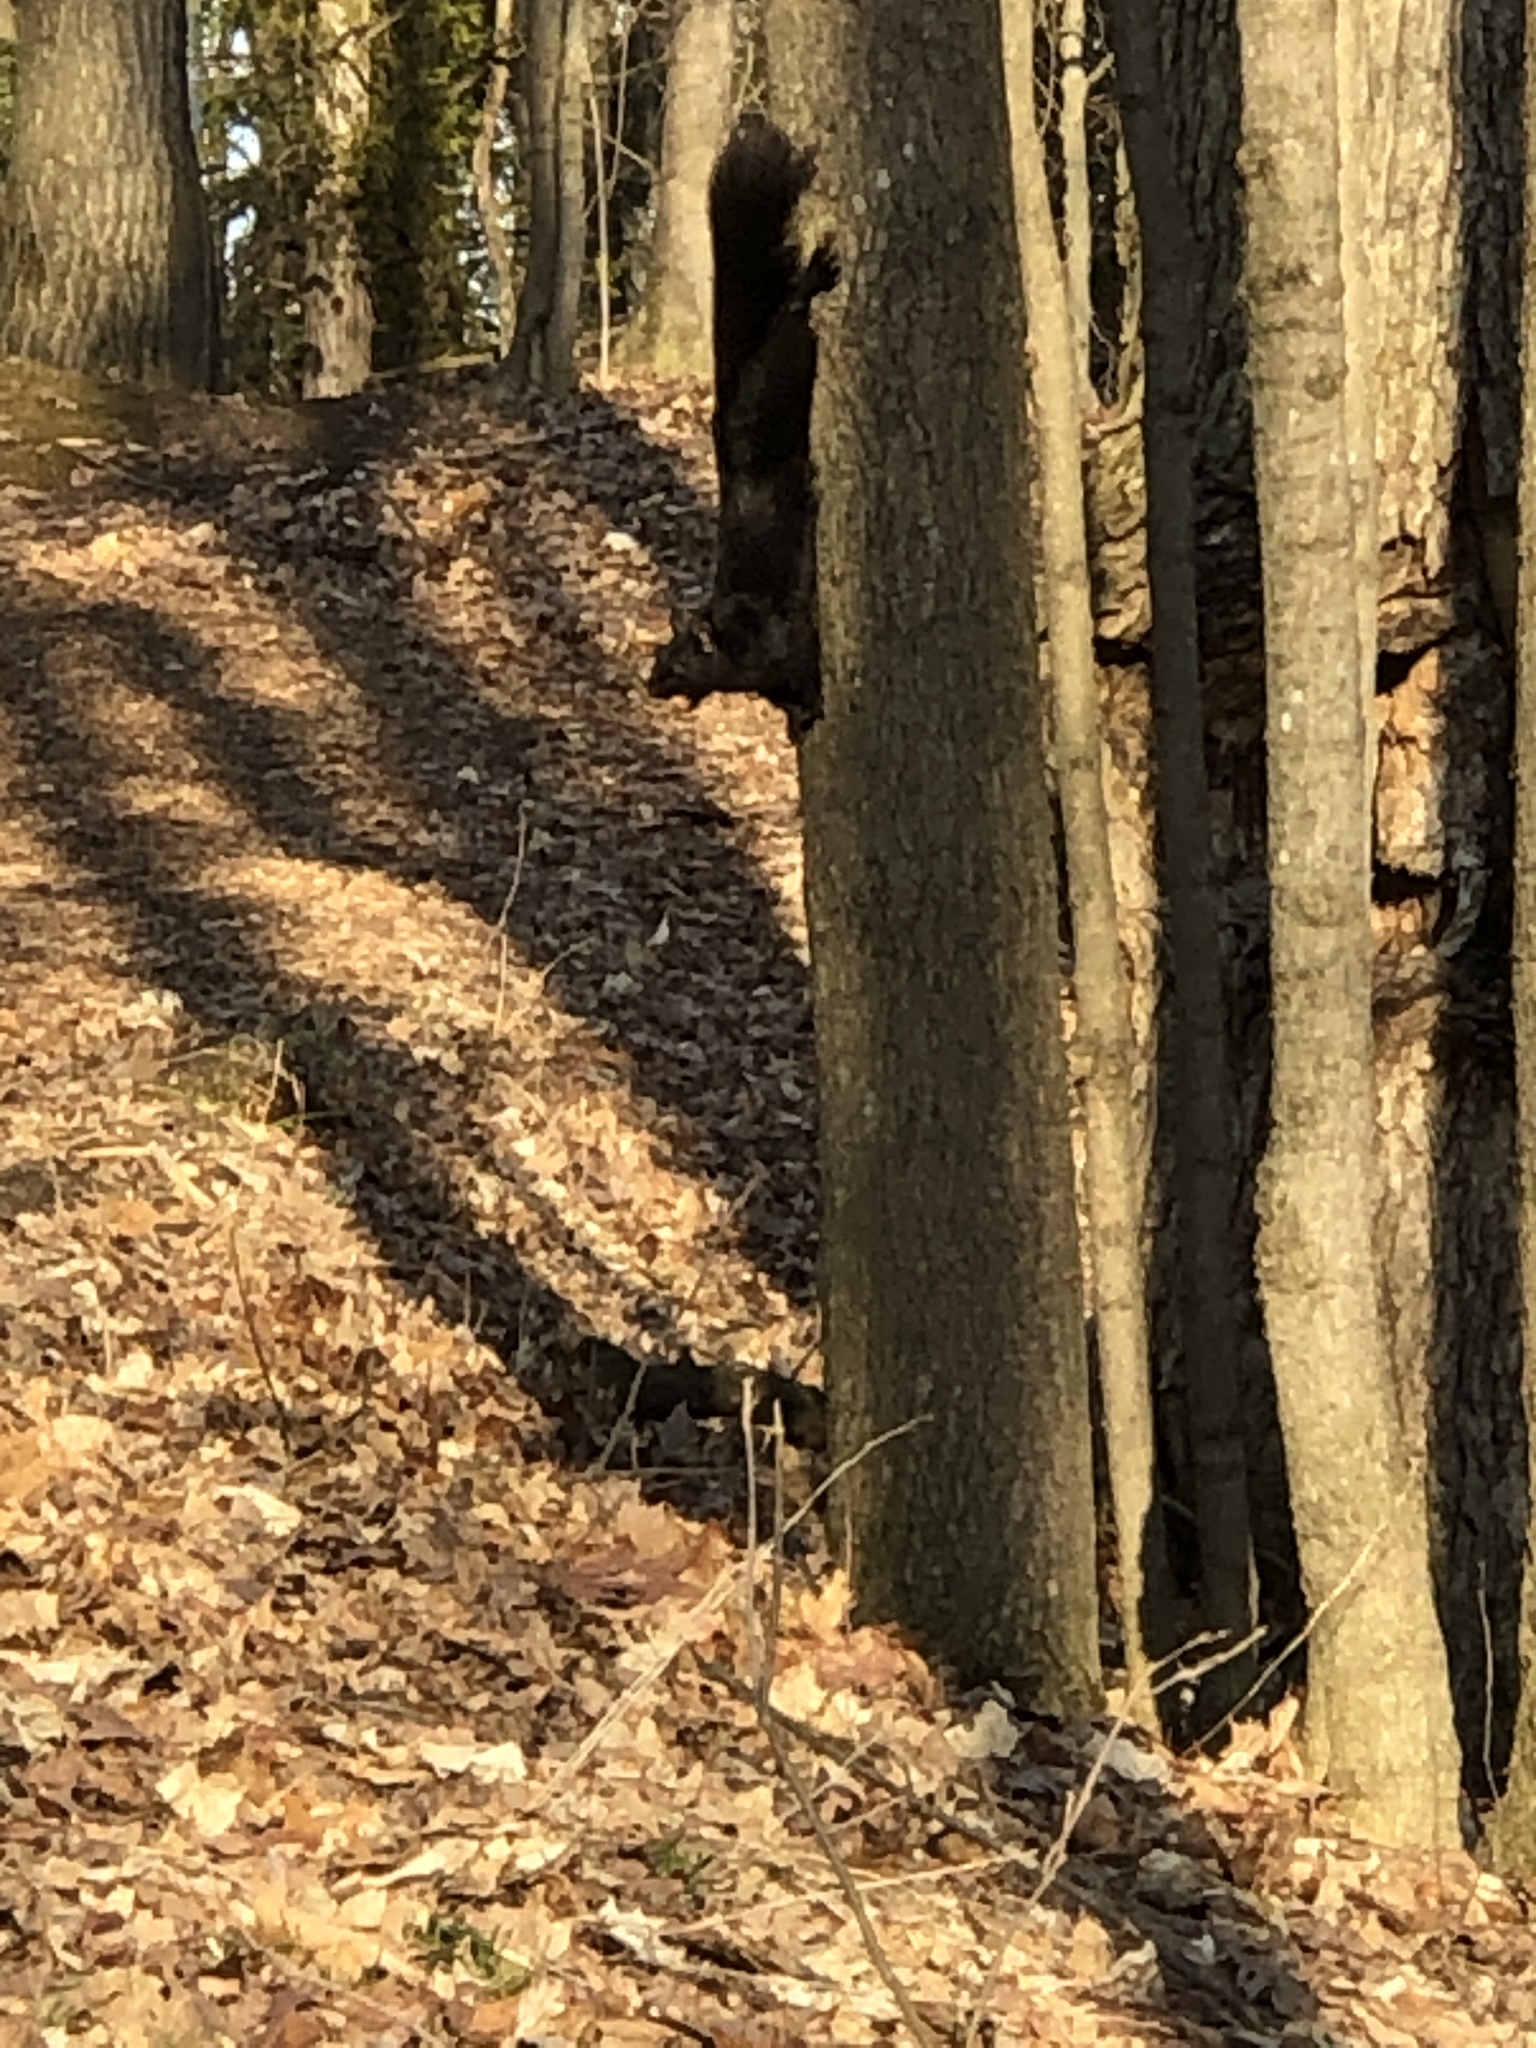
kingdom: Animalia
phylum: Chordata
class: Mammalia
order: Rodentia
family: Sciuridae
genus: Sciurus
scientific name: Sciurus carolinensis
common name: Eastern gray squirrel
